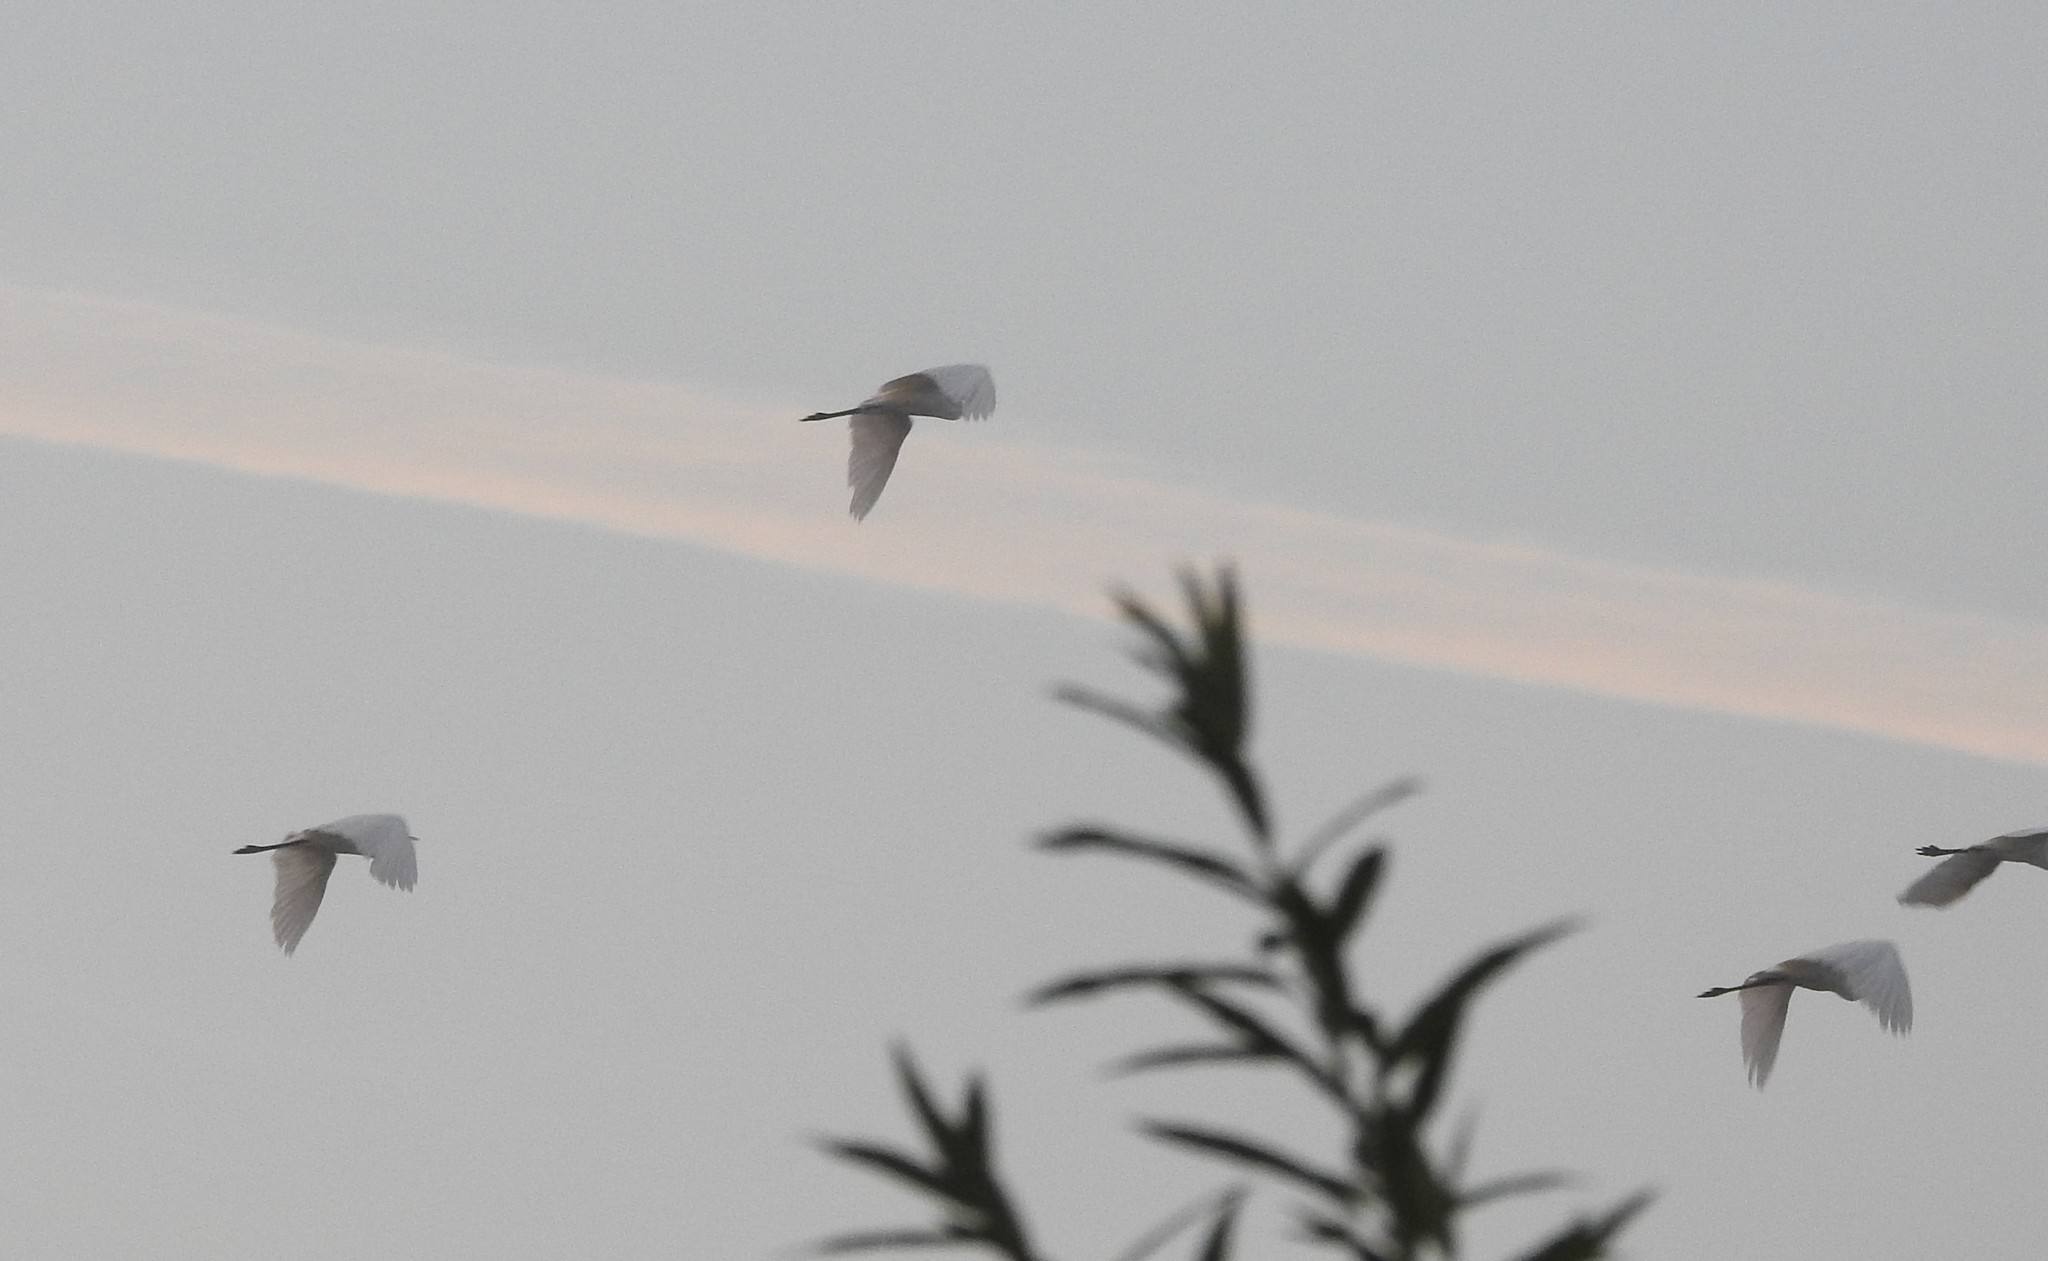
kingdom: Animalia
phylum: Chordata
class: Aves
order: Pelecaniformes
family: Ardeidae
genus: Ardea
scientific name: Ardea alba
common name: Great egret
